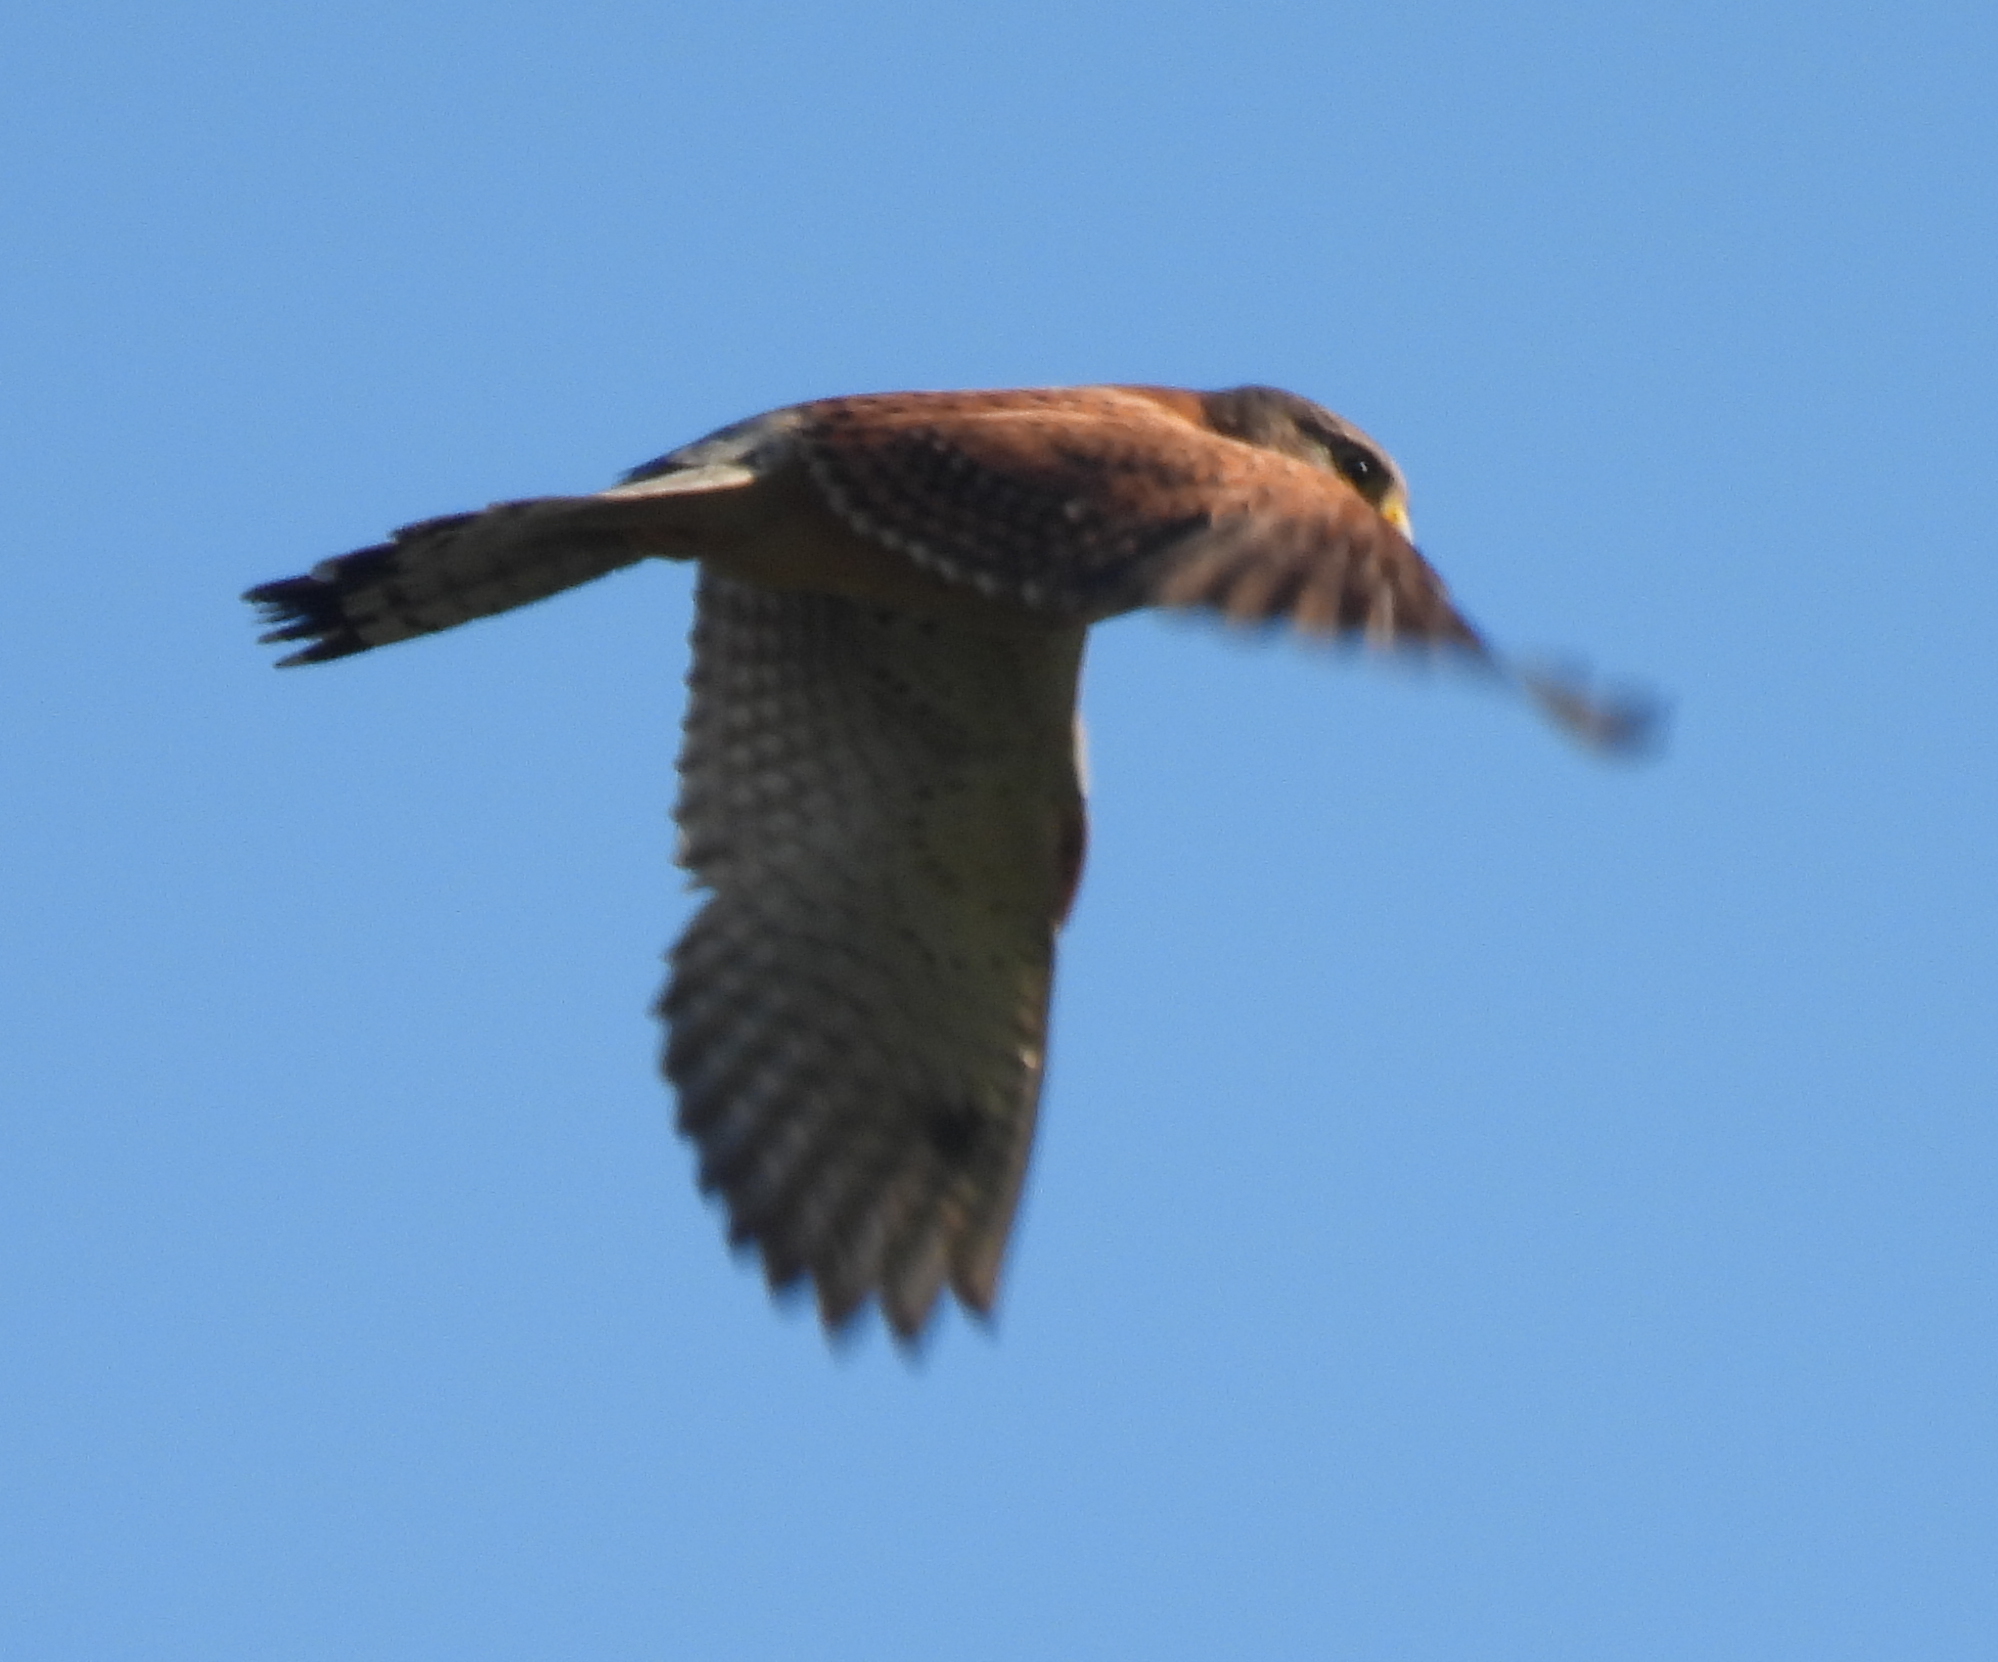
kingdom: Animalia
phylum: Chordata
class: Aves
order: Falconiformes
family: Falconidae
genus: Falco
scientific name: Falco rupicolus
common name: Rock kestrel
